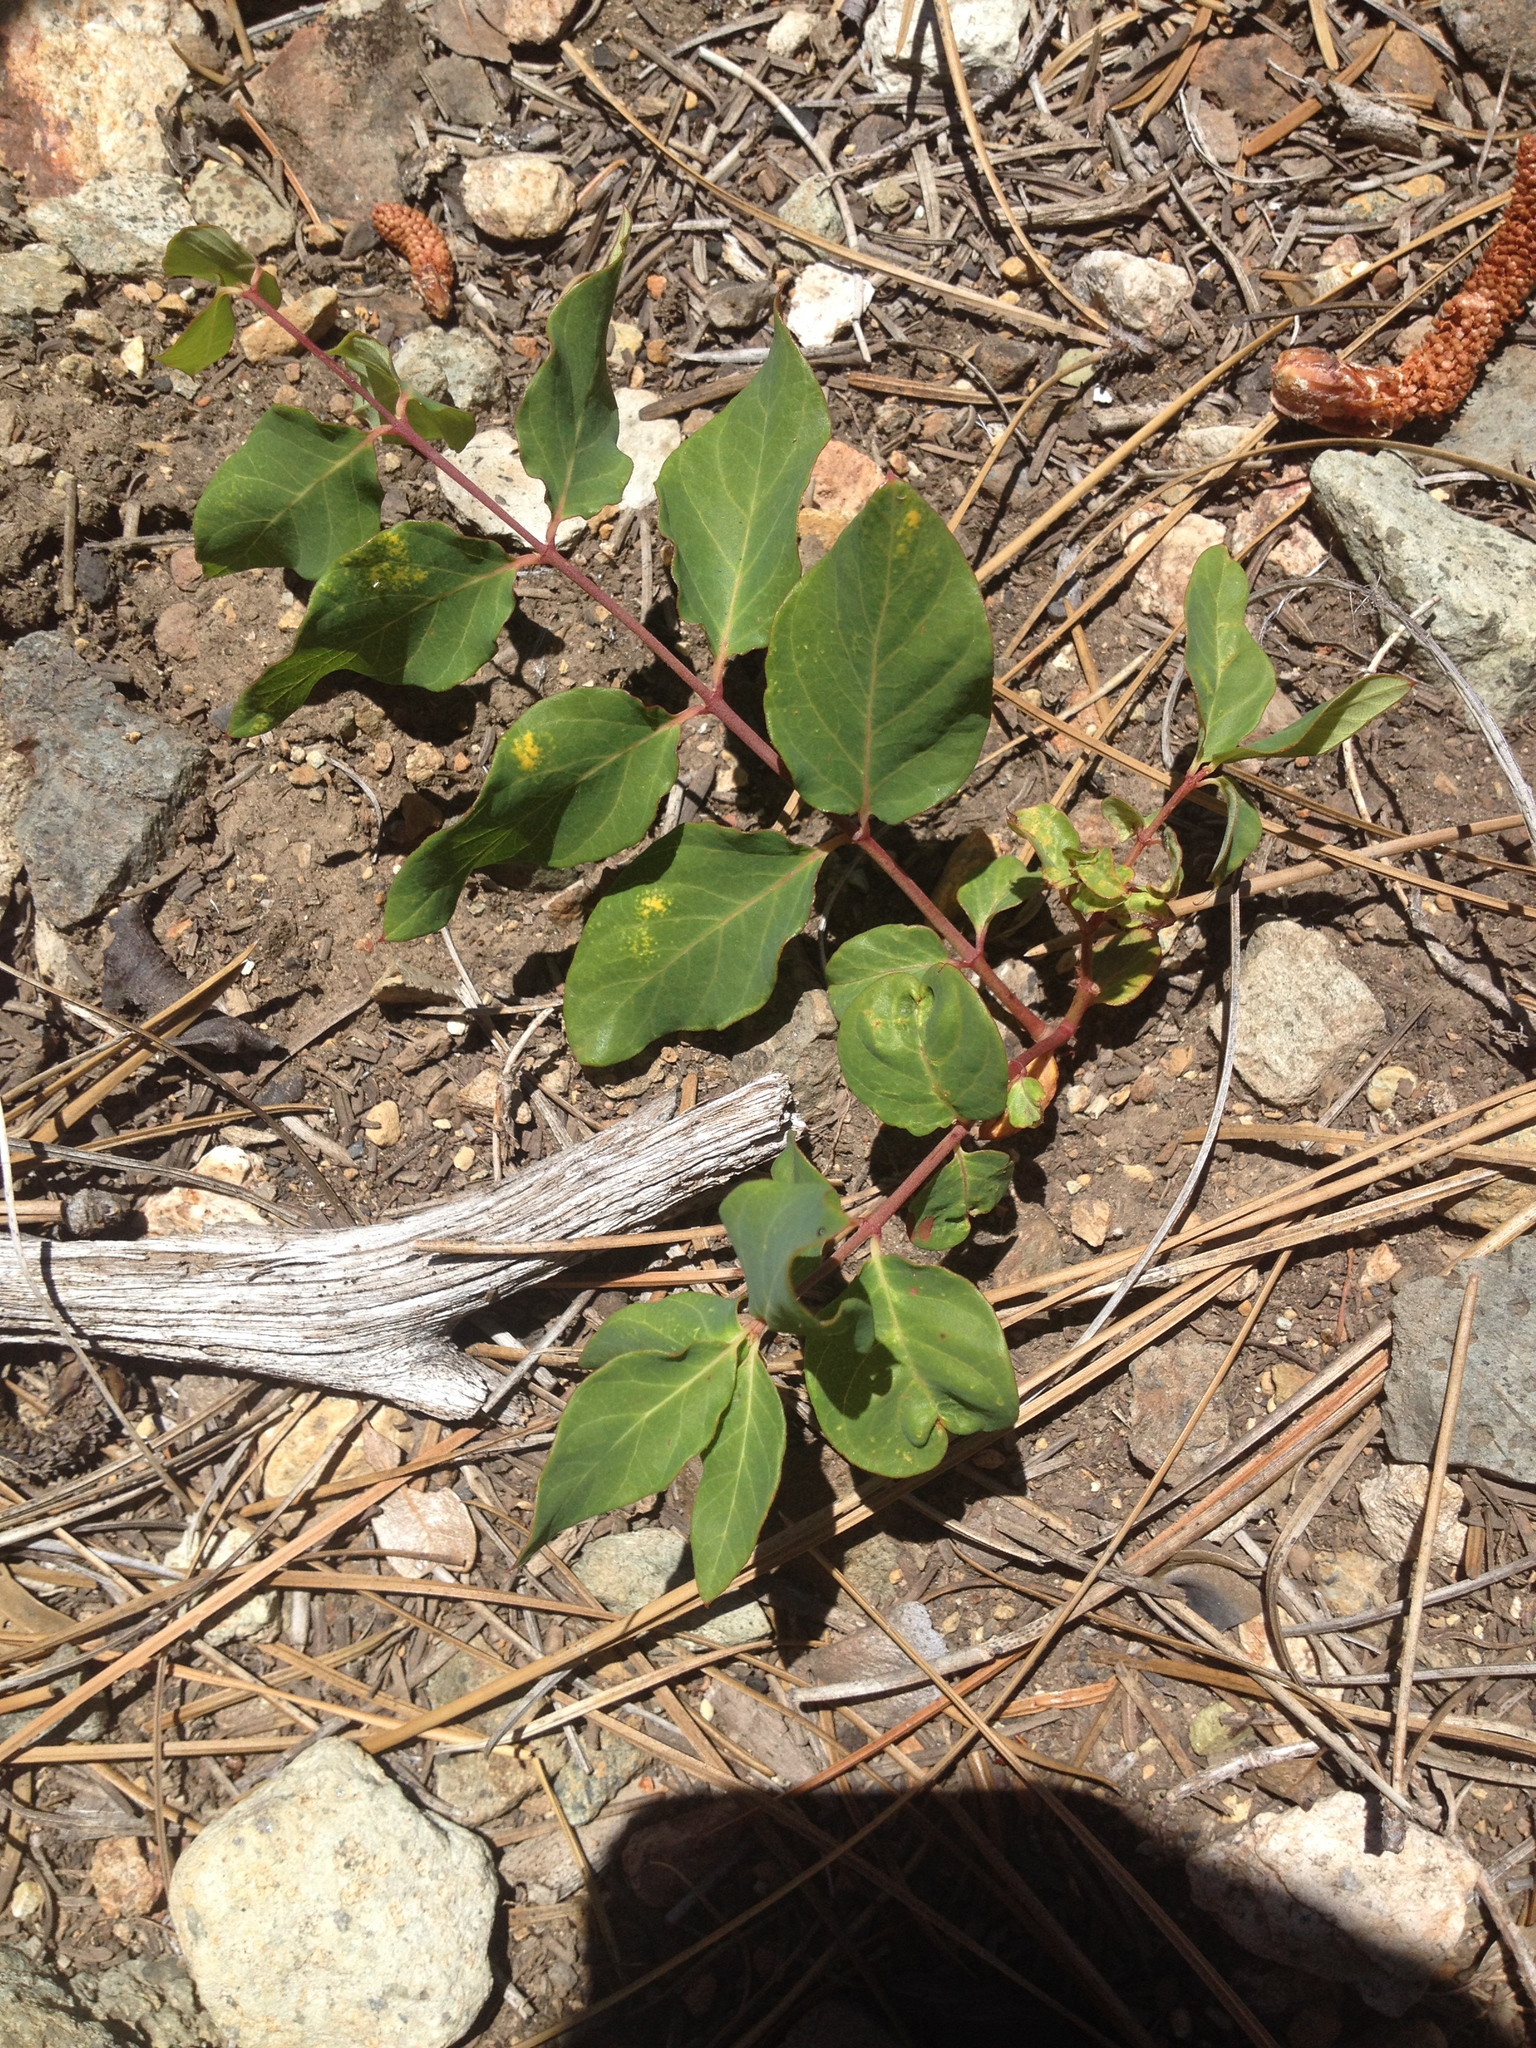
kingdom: Plantae
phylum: Tracheophyta
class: Magnoliopsida
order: Gentianales
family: Apocynaceae
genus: Apocynum
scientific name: Apocynum androsaemifolium
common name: Spreading dogbane
